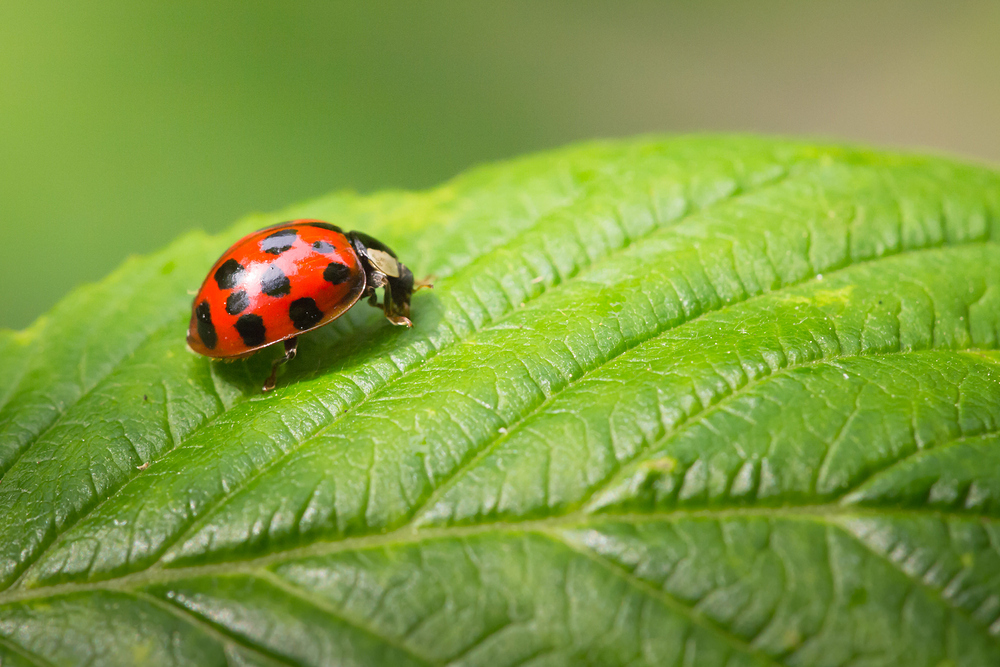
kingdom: Animalia
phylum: Arthropoda
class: Insecta
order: Coleoptera
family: Coccinellidae
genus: Harmonia
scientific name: Harmonia axyridis
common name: Harlequin ladybird
